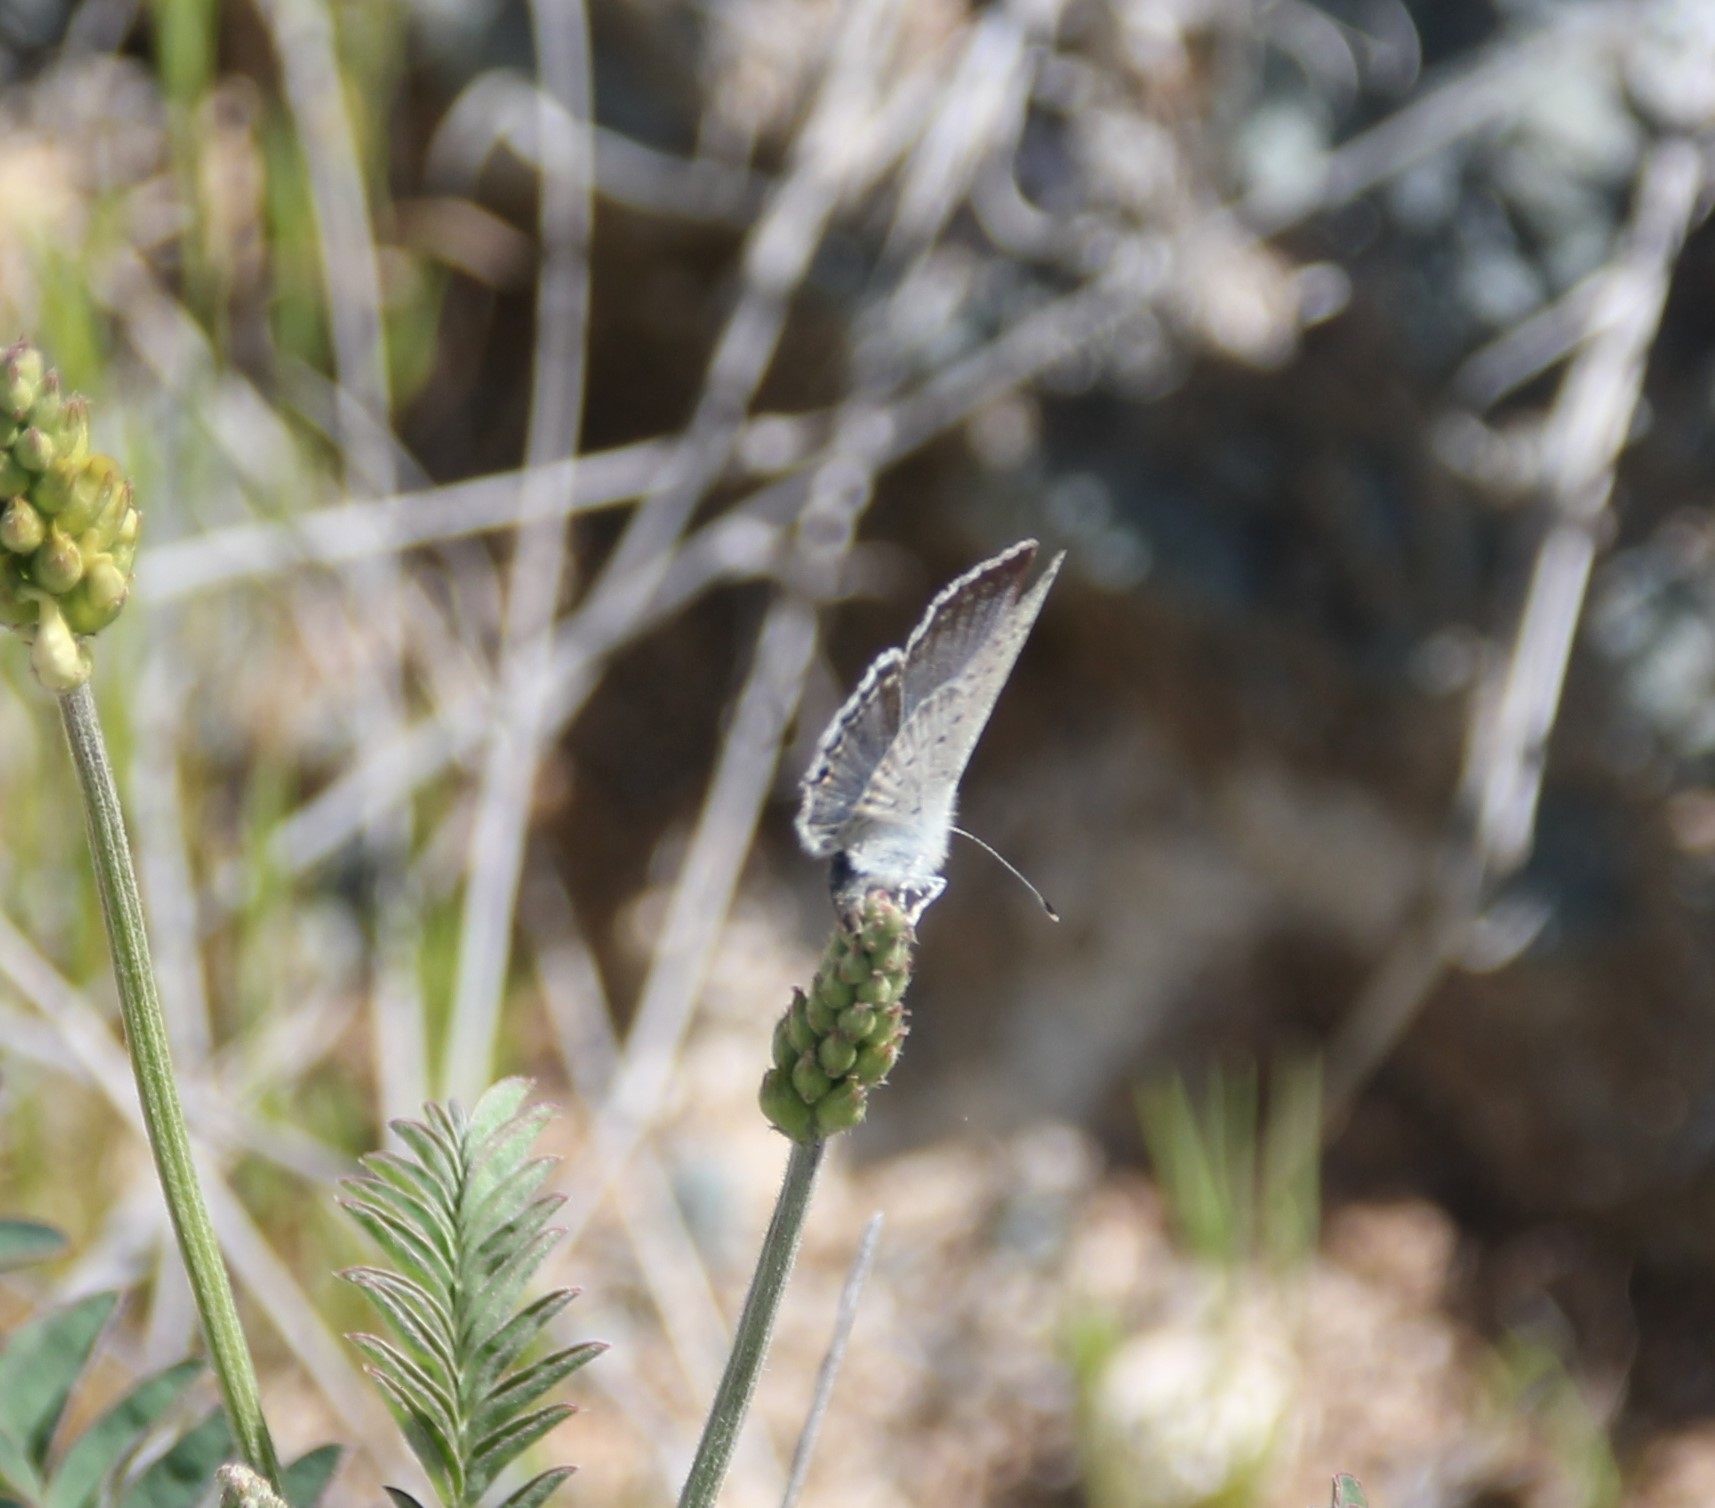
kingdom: Animalia
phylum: Arthropoda
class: Insecta
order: Lepidoptera
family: Lycaenidae
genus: Elkalyce
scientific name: Elkalyce amyntula
